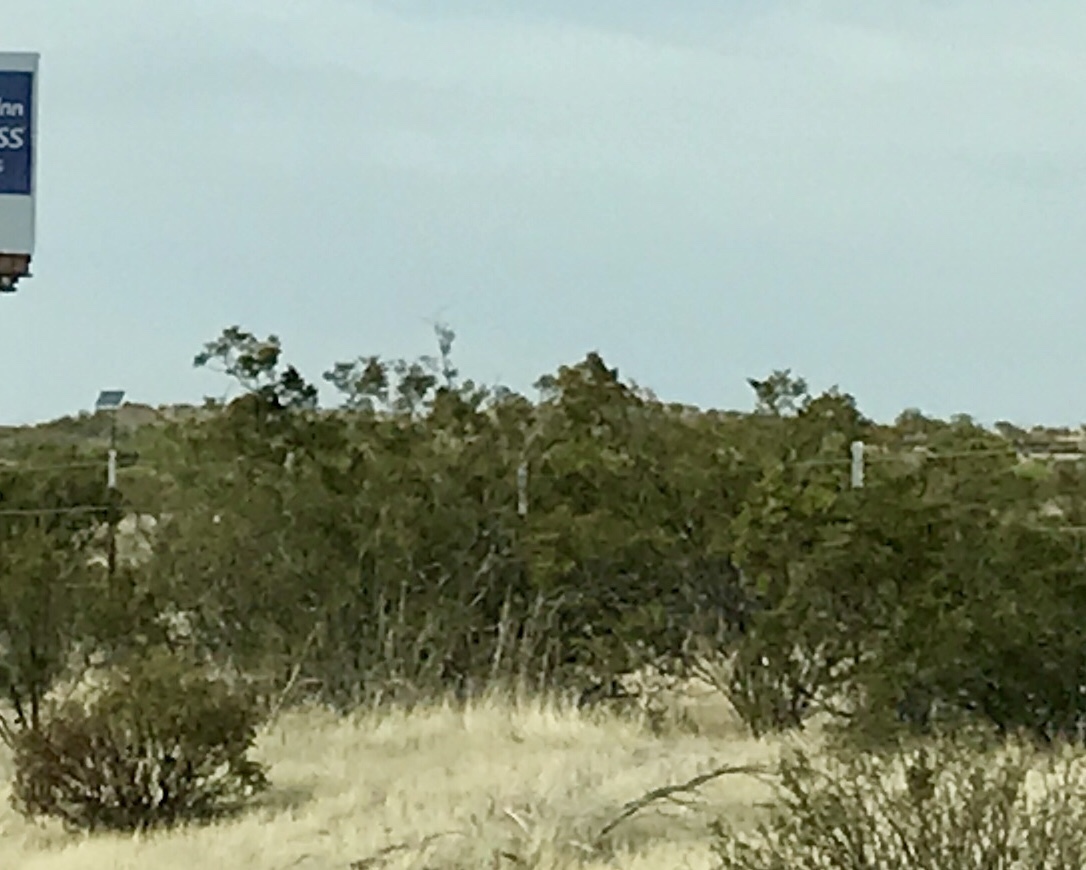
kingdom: Plantae
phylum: Tracheophyta
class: Magnoliopsida
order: Zygophyllales
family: Zygophyllaceae
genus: Larrea
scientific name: Larrea tridentata
